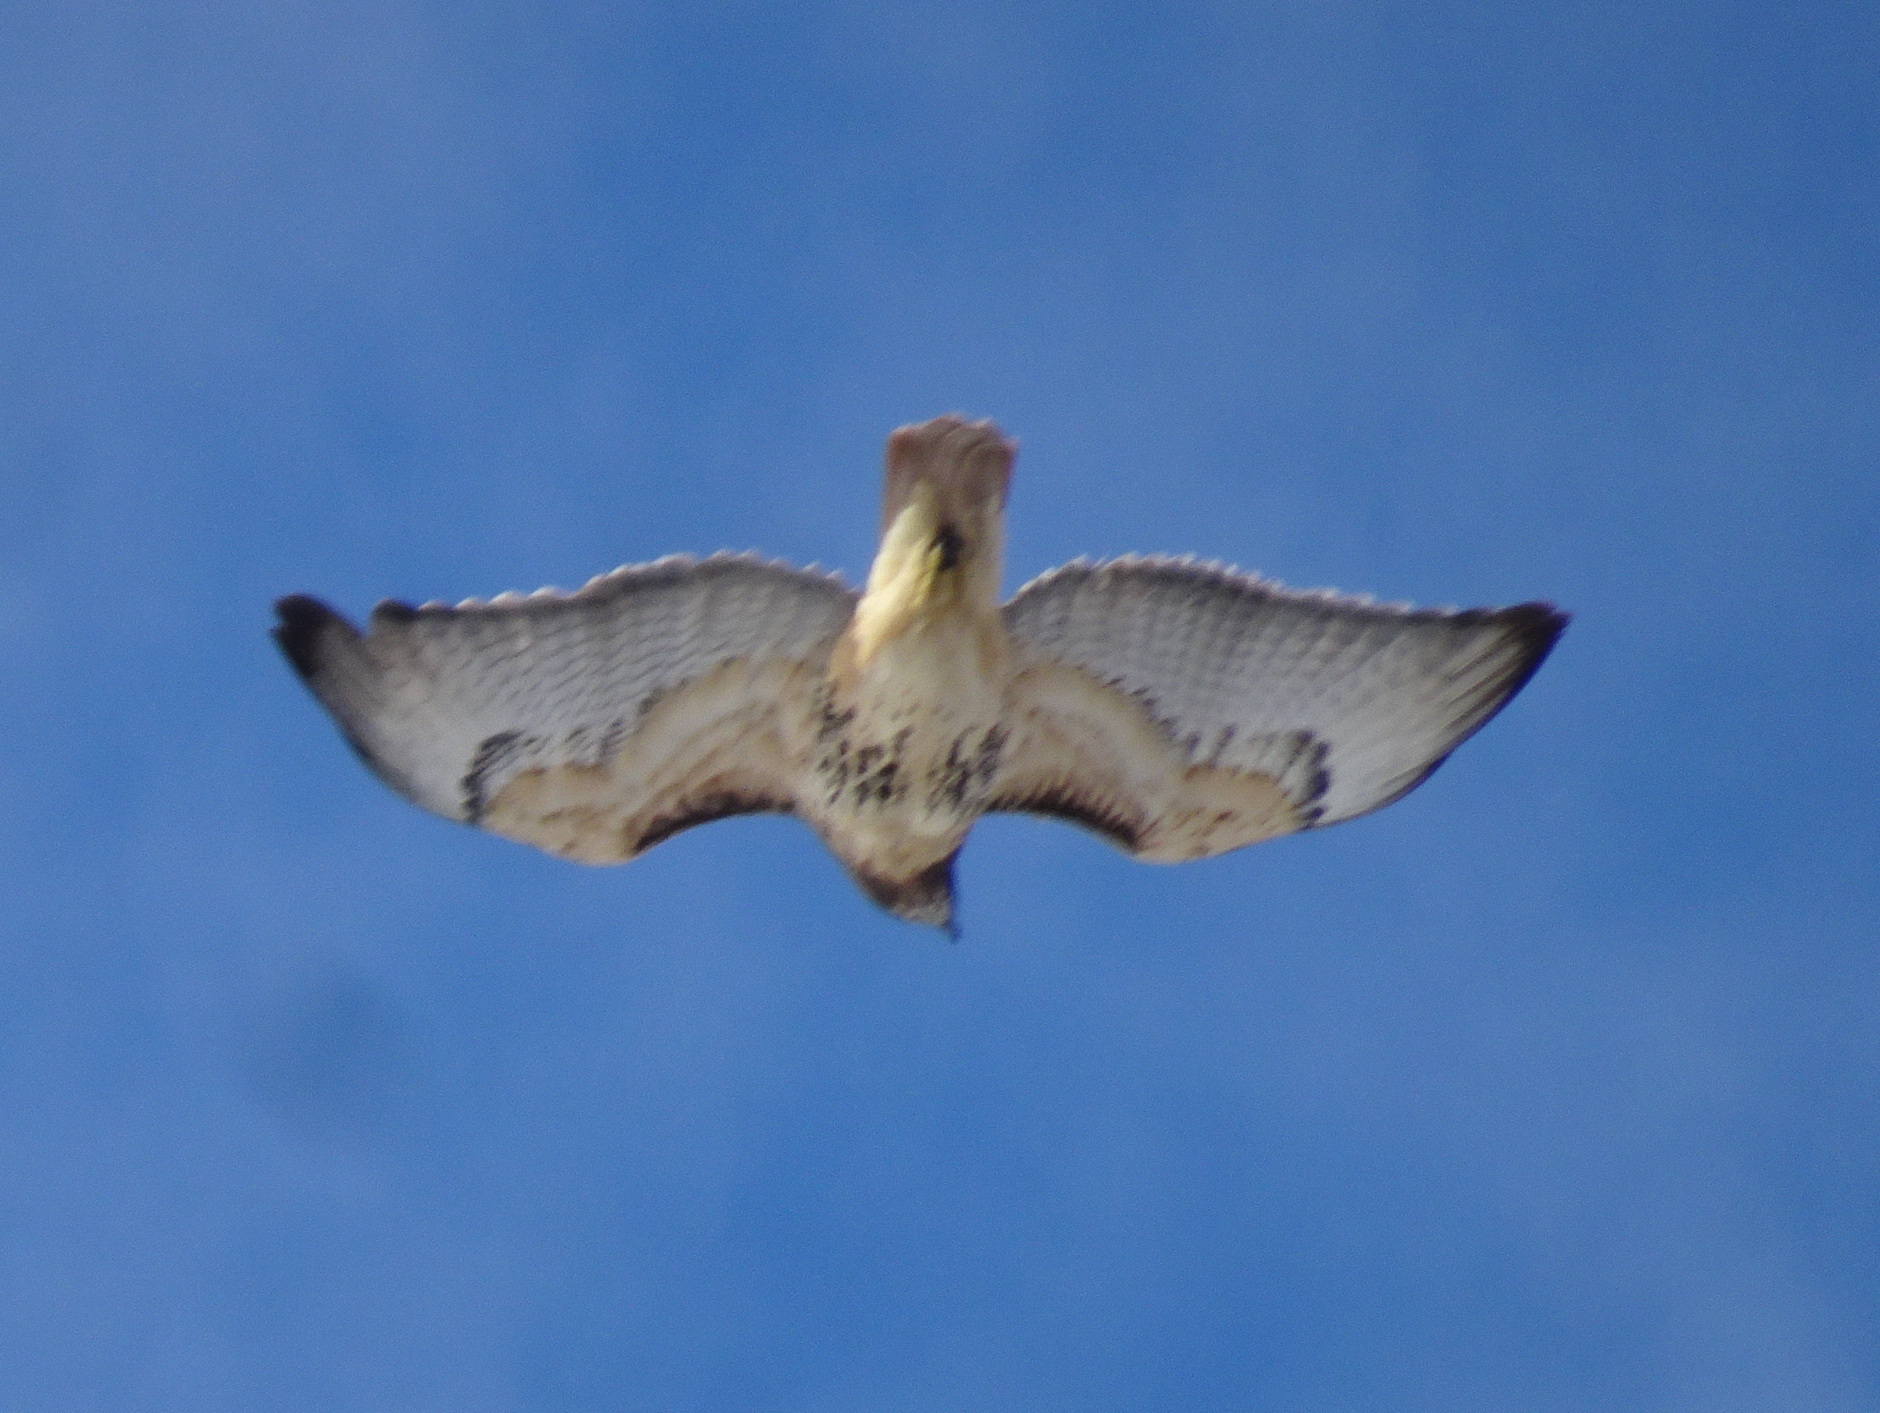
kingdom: Animalia
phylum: Chordata
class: Aves
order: Accipitriformes
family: Accipitridae
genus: Buteo
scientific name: Buteo jamaicensis
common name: Red-tailed hawk
